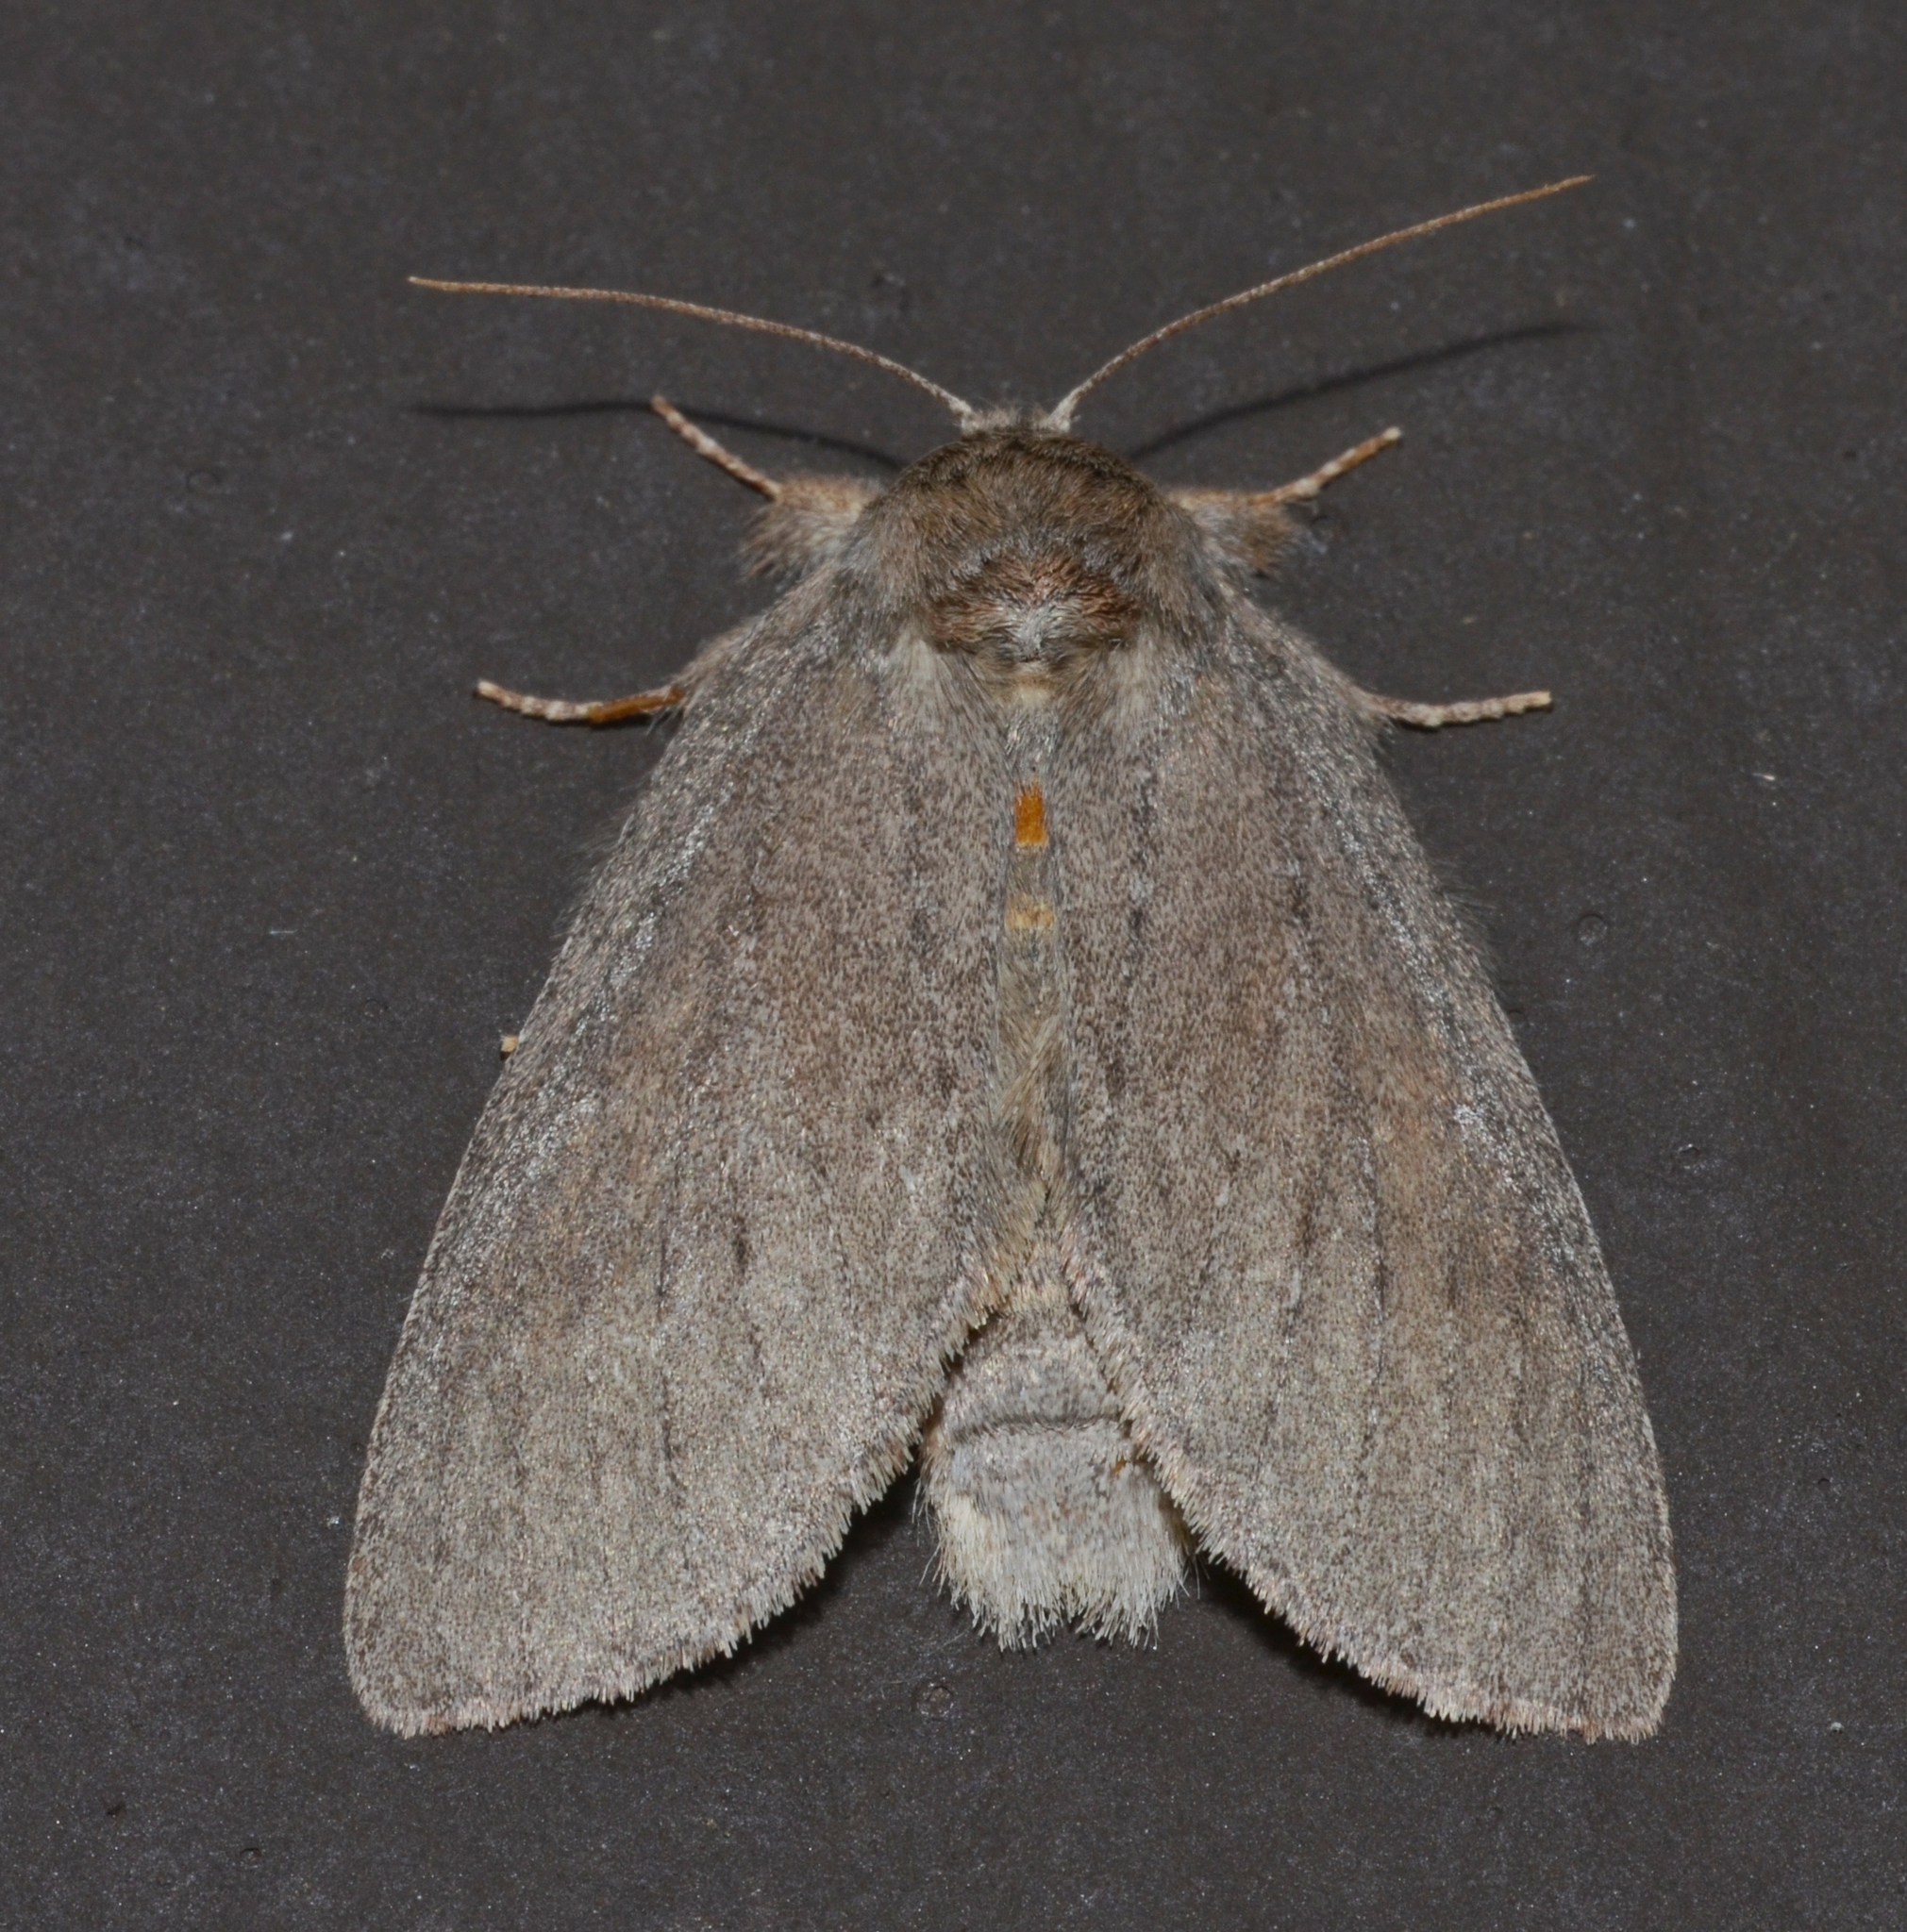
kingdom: Animalia
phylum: Arthropoda
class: Insecta
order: Lepidoptera
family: Notodontidae
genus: Misogada
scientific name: Misogada unicolor
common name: Drab prominent
